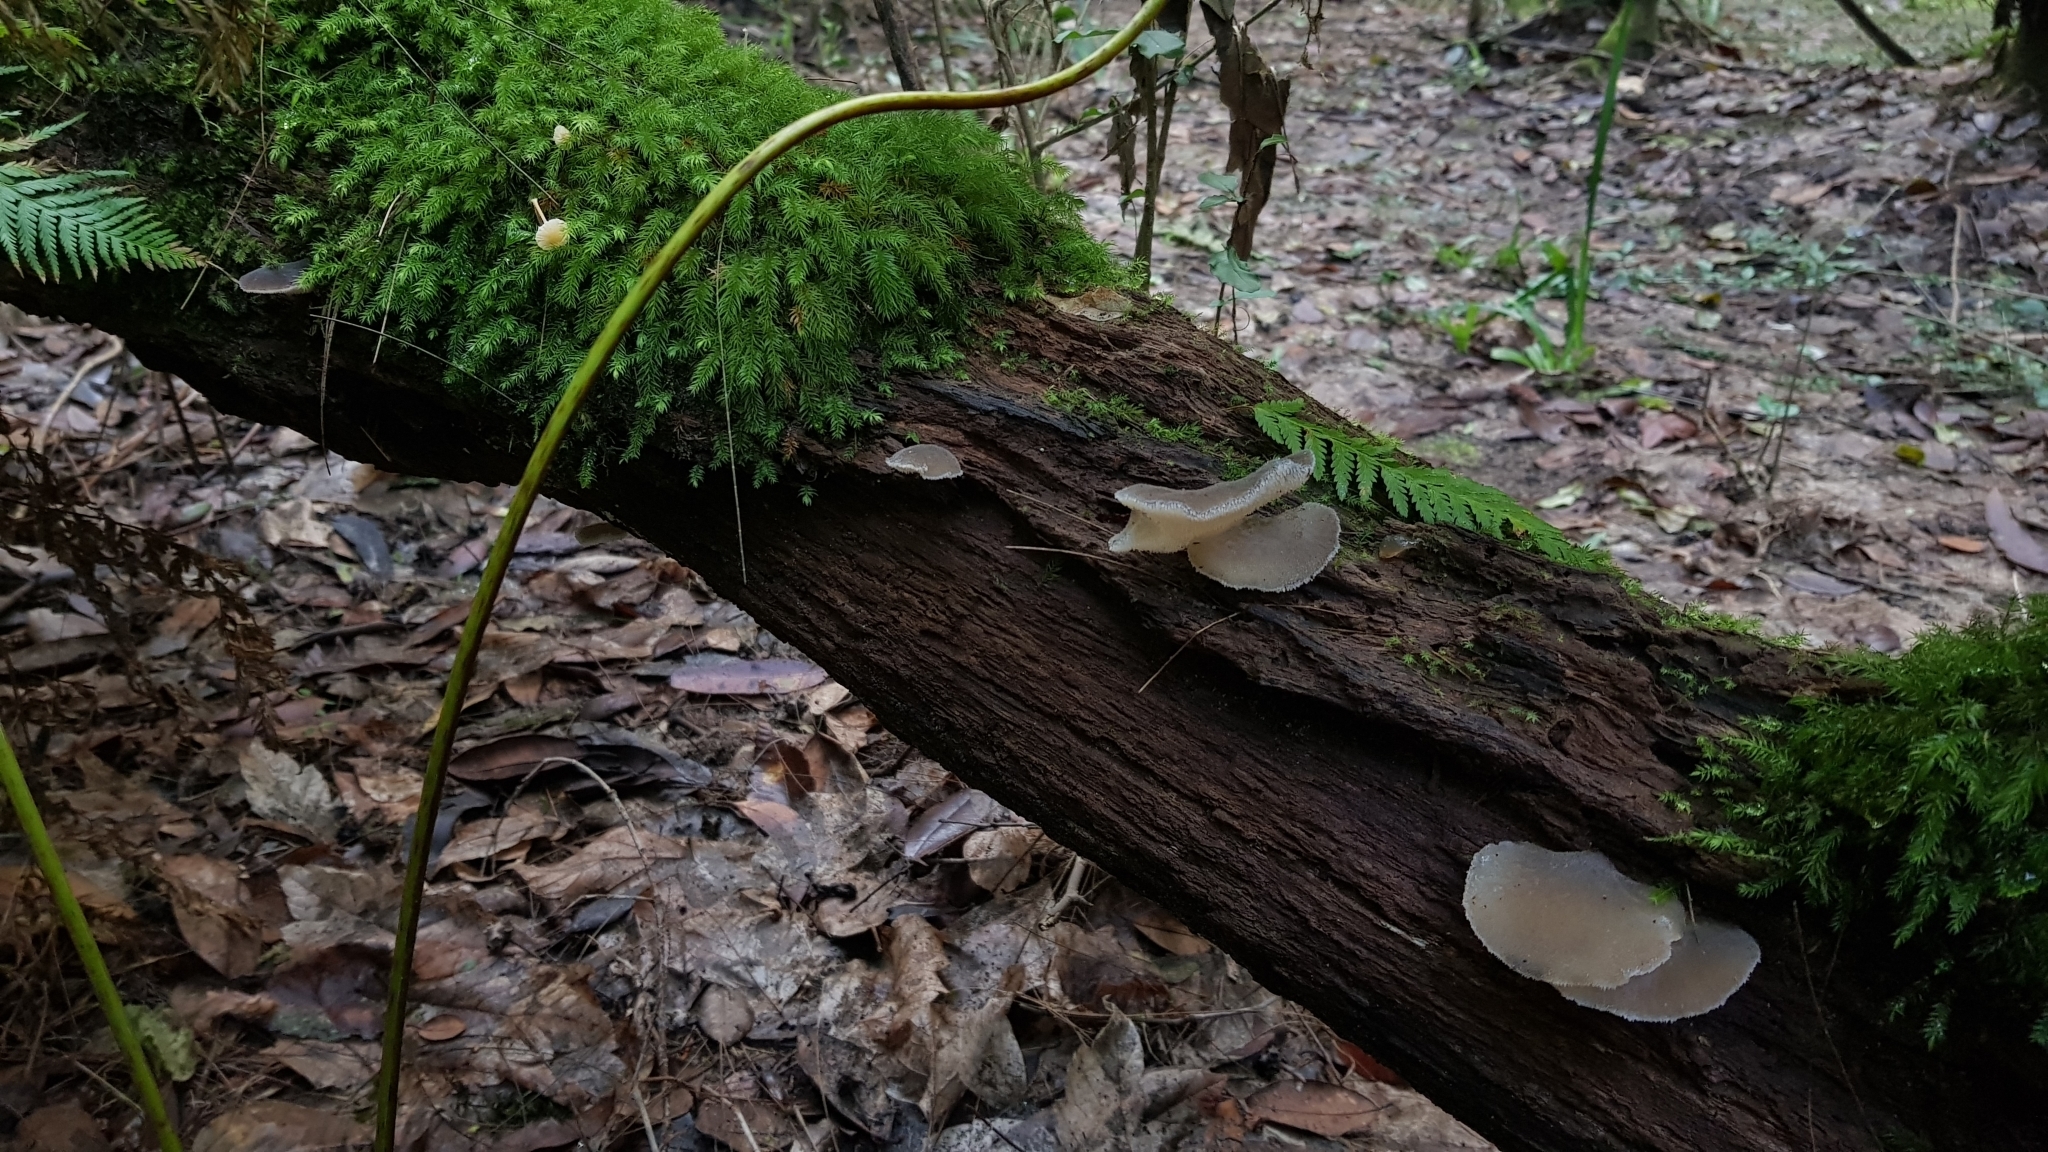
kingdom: Fungi
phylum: Basidiomycota
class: Agaricomycetes
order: Auriculariales
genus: Pseudohydnum
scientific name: Pseudohydnum gelatinosum
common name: Jelly tongue
